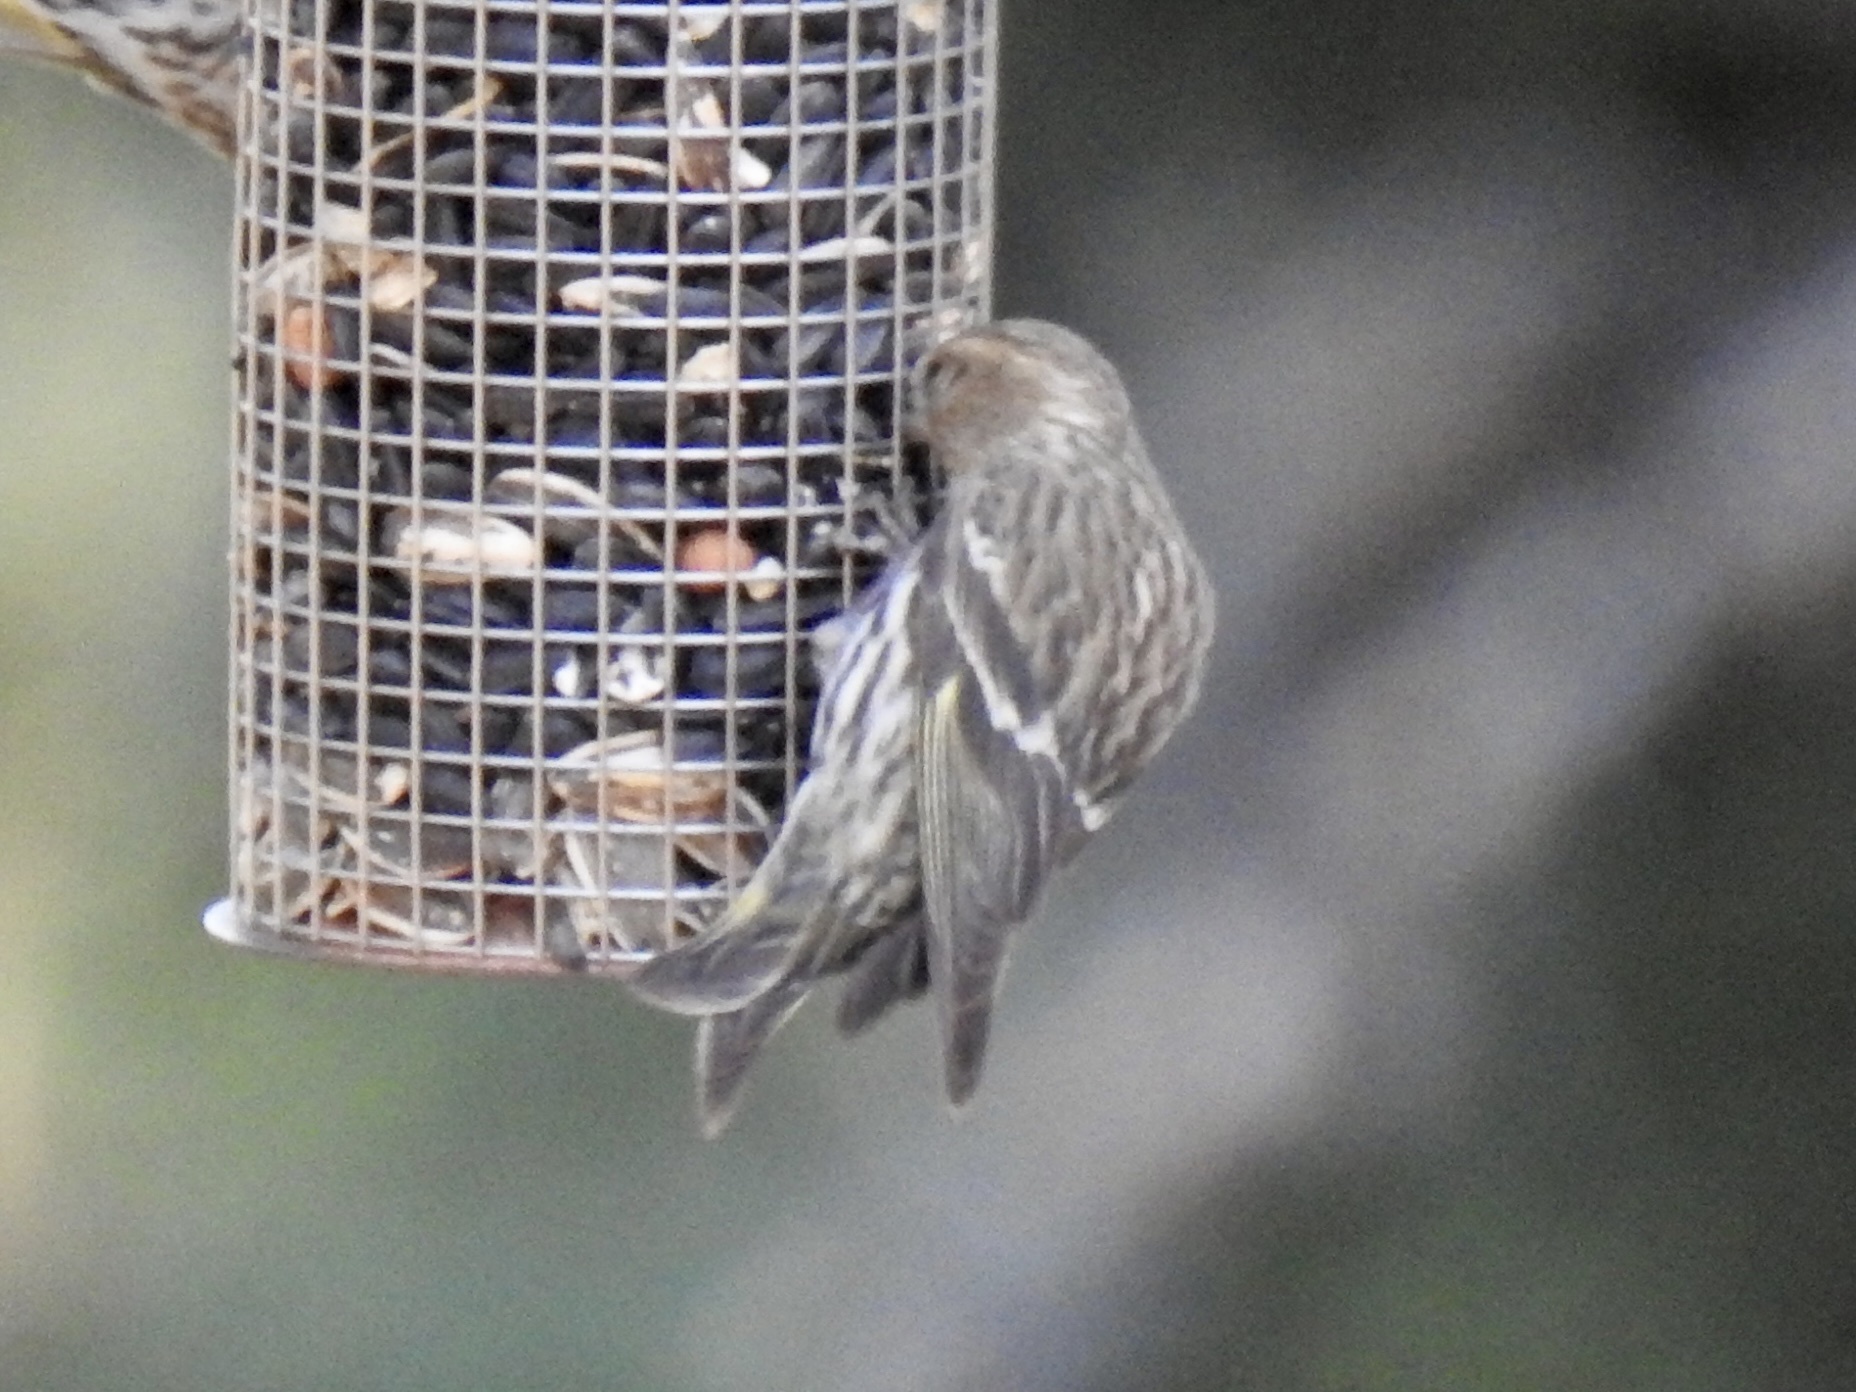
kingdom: Animalia
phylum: Chordata
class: Aves
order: Passeriformes
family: Fringillidae
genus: Spinus
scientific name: Spinus pinus
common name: Pine siskin
